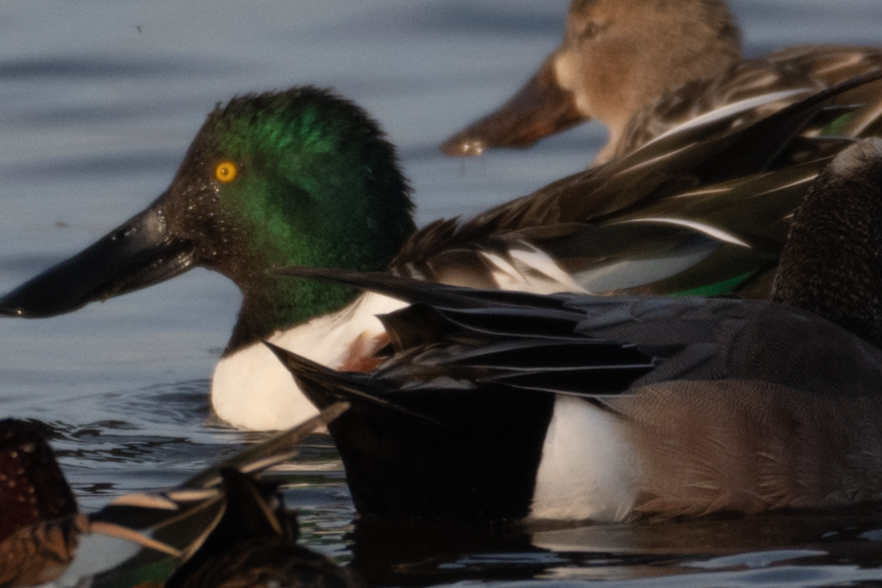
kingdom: Animalia
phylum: Chordata
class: Aves
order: Anseriformes
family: Anatidae
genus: Spatula
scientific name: Spatula clypeata
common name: Northern shoveler
